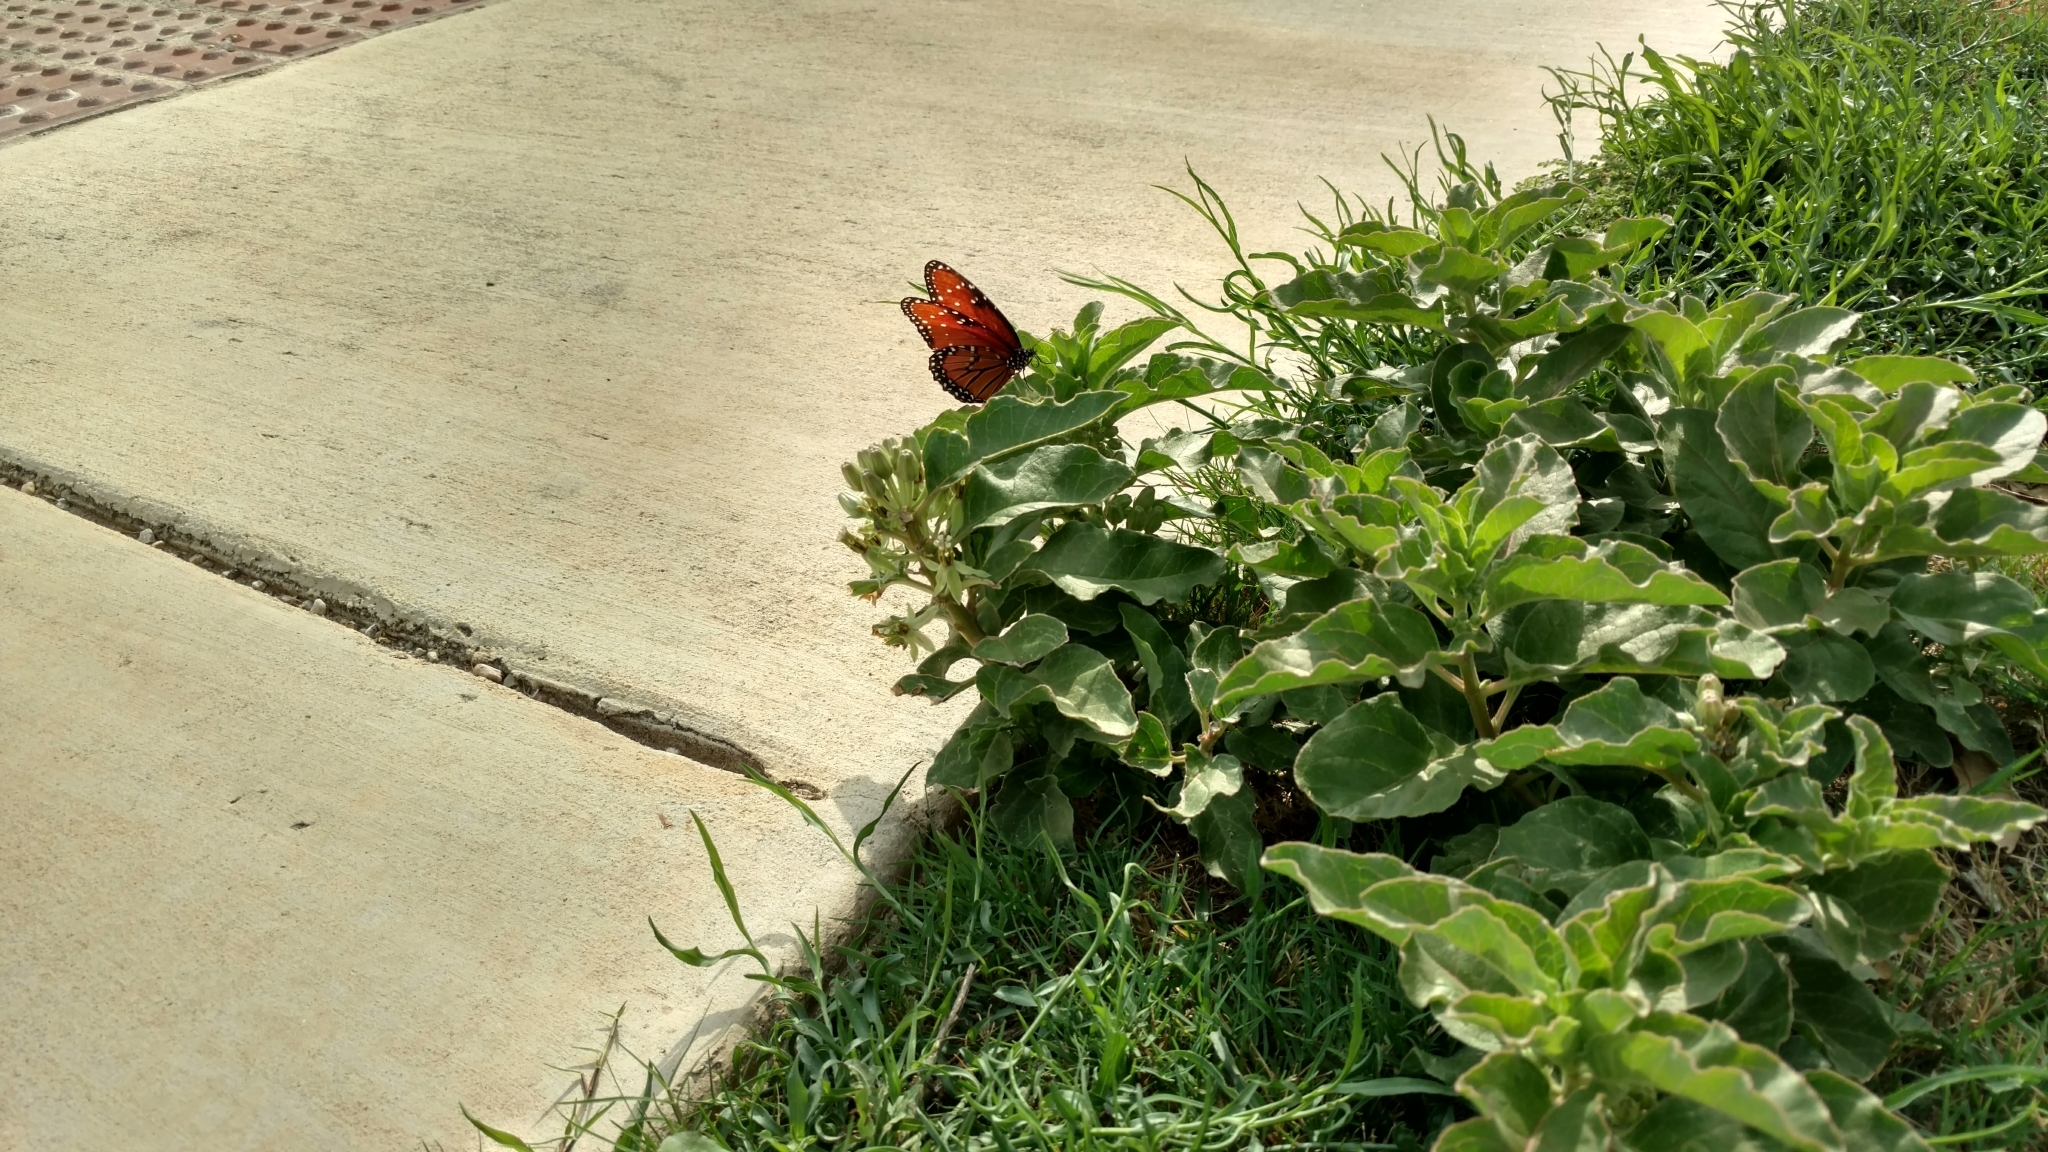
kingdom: Animalia
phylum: Arthropoda
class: Insecta
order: Lepidoptera
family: Nymphalidae
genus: Danaus
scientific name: Danaus gilippus
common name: Queen
